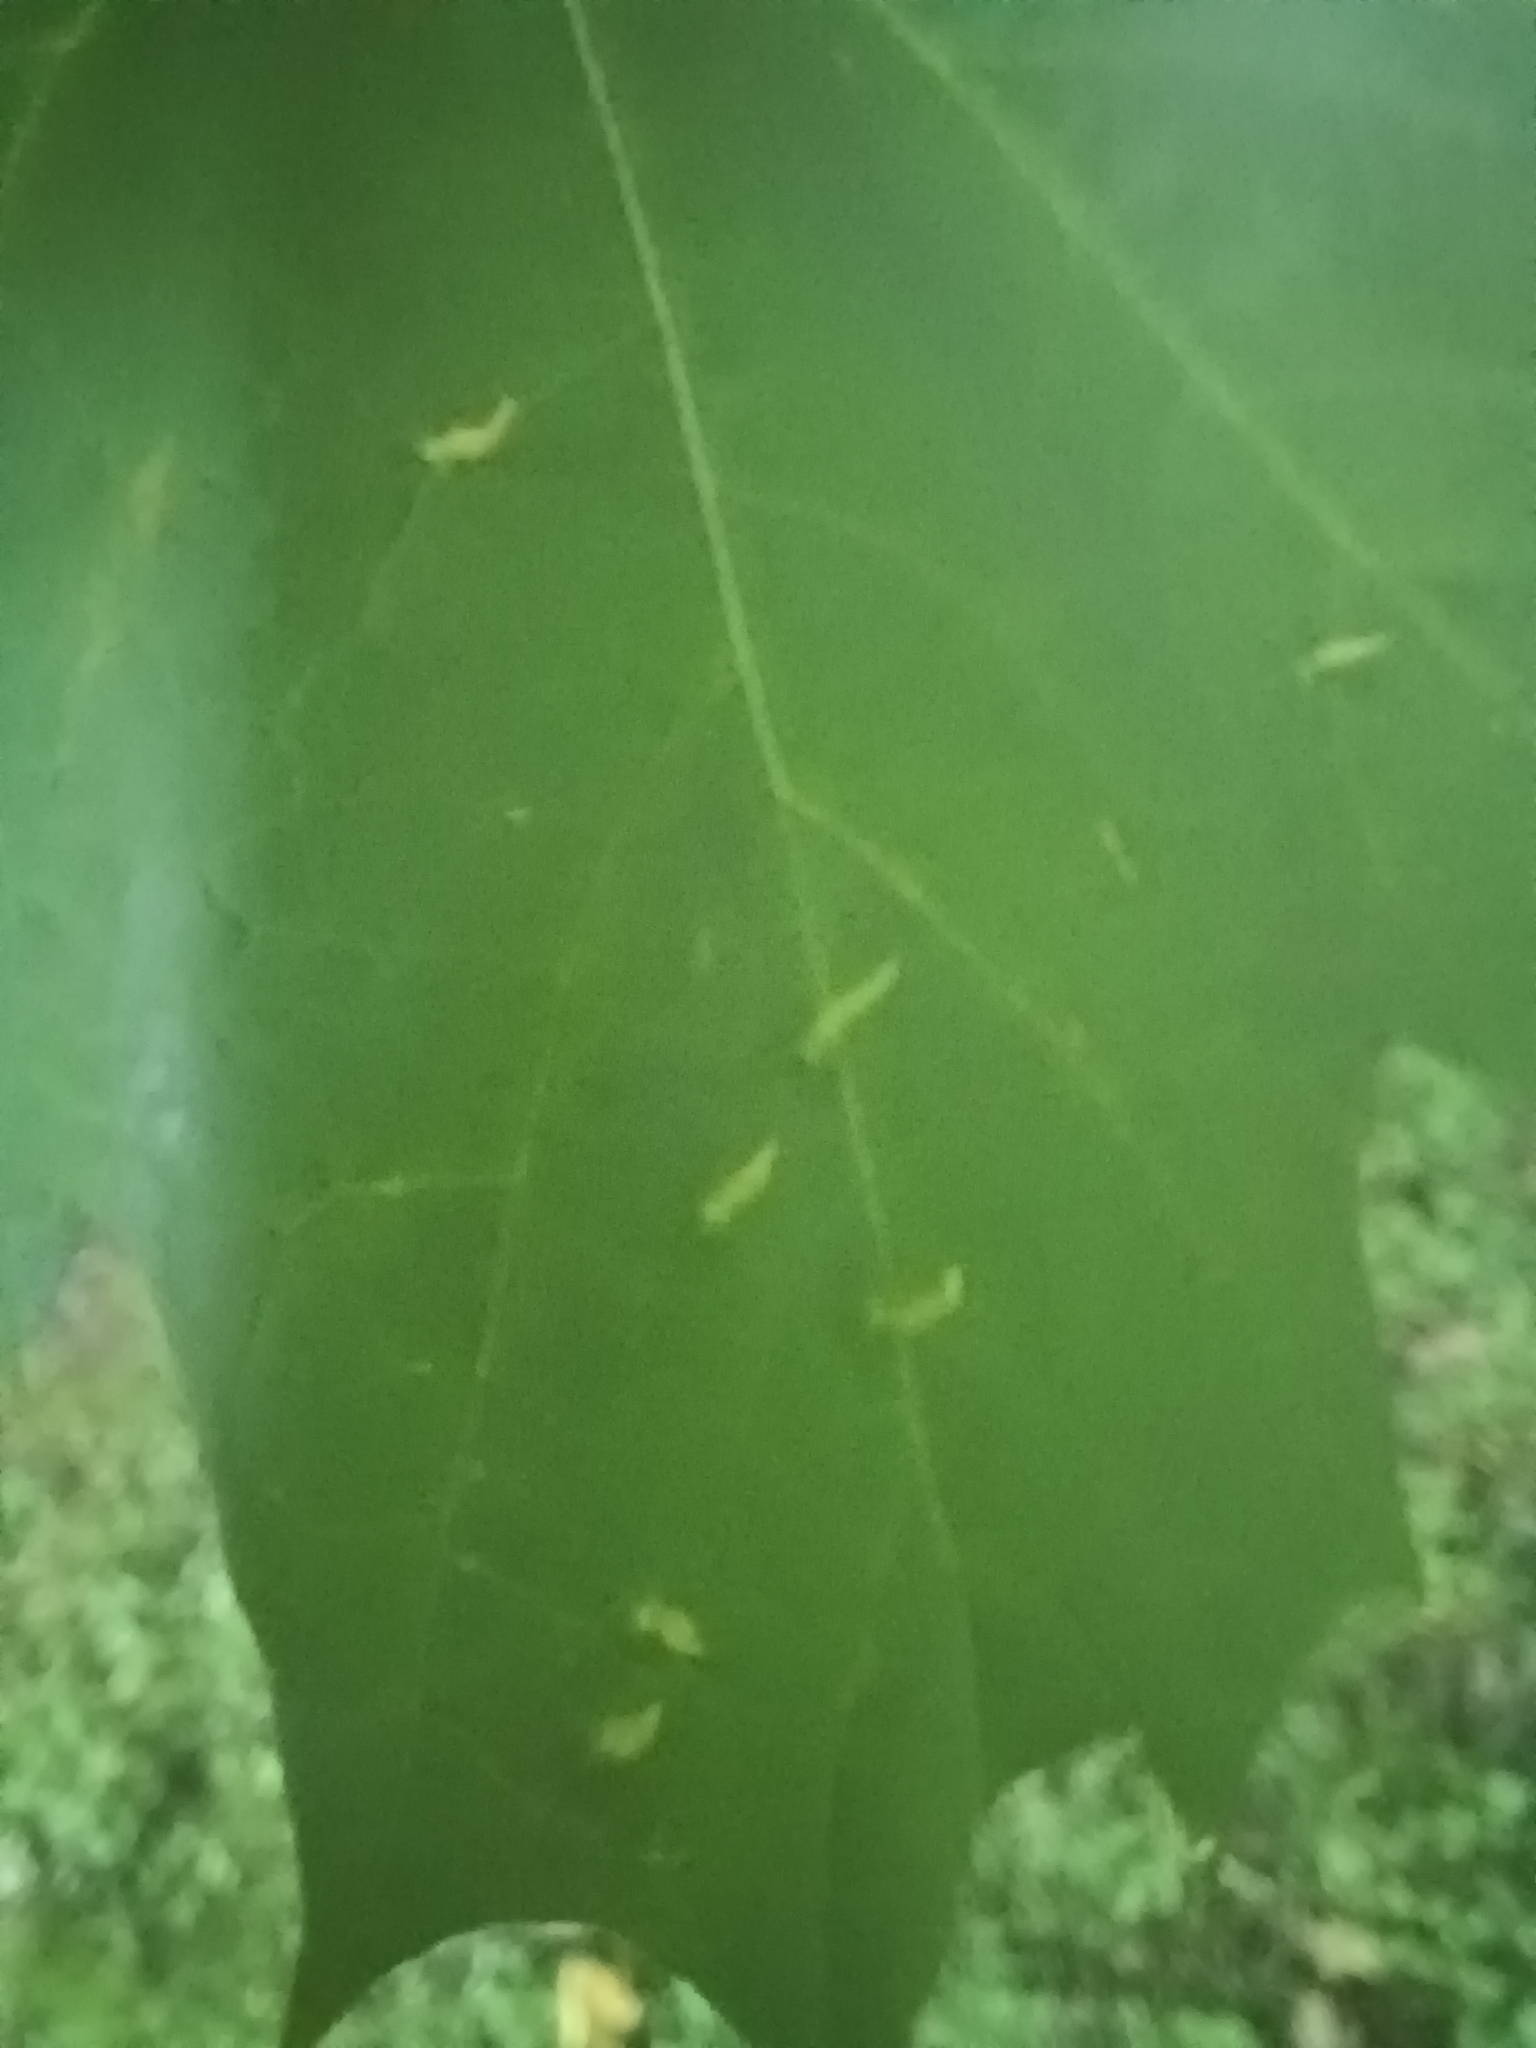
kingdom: Animalia
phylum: Arthropoda
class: Arachnida
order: Trombidiformes
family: Eriophyidae
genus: Vasates
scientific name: Vasates aceriscrumena
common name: Maple spindle gall mite
